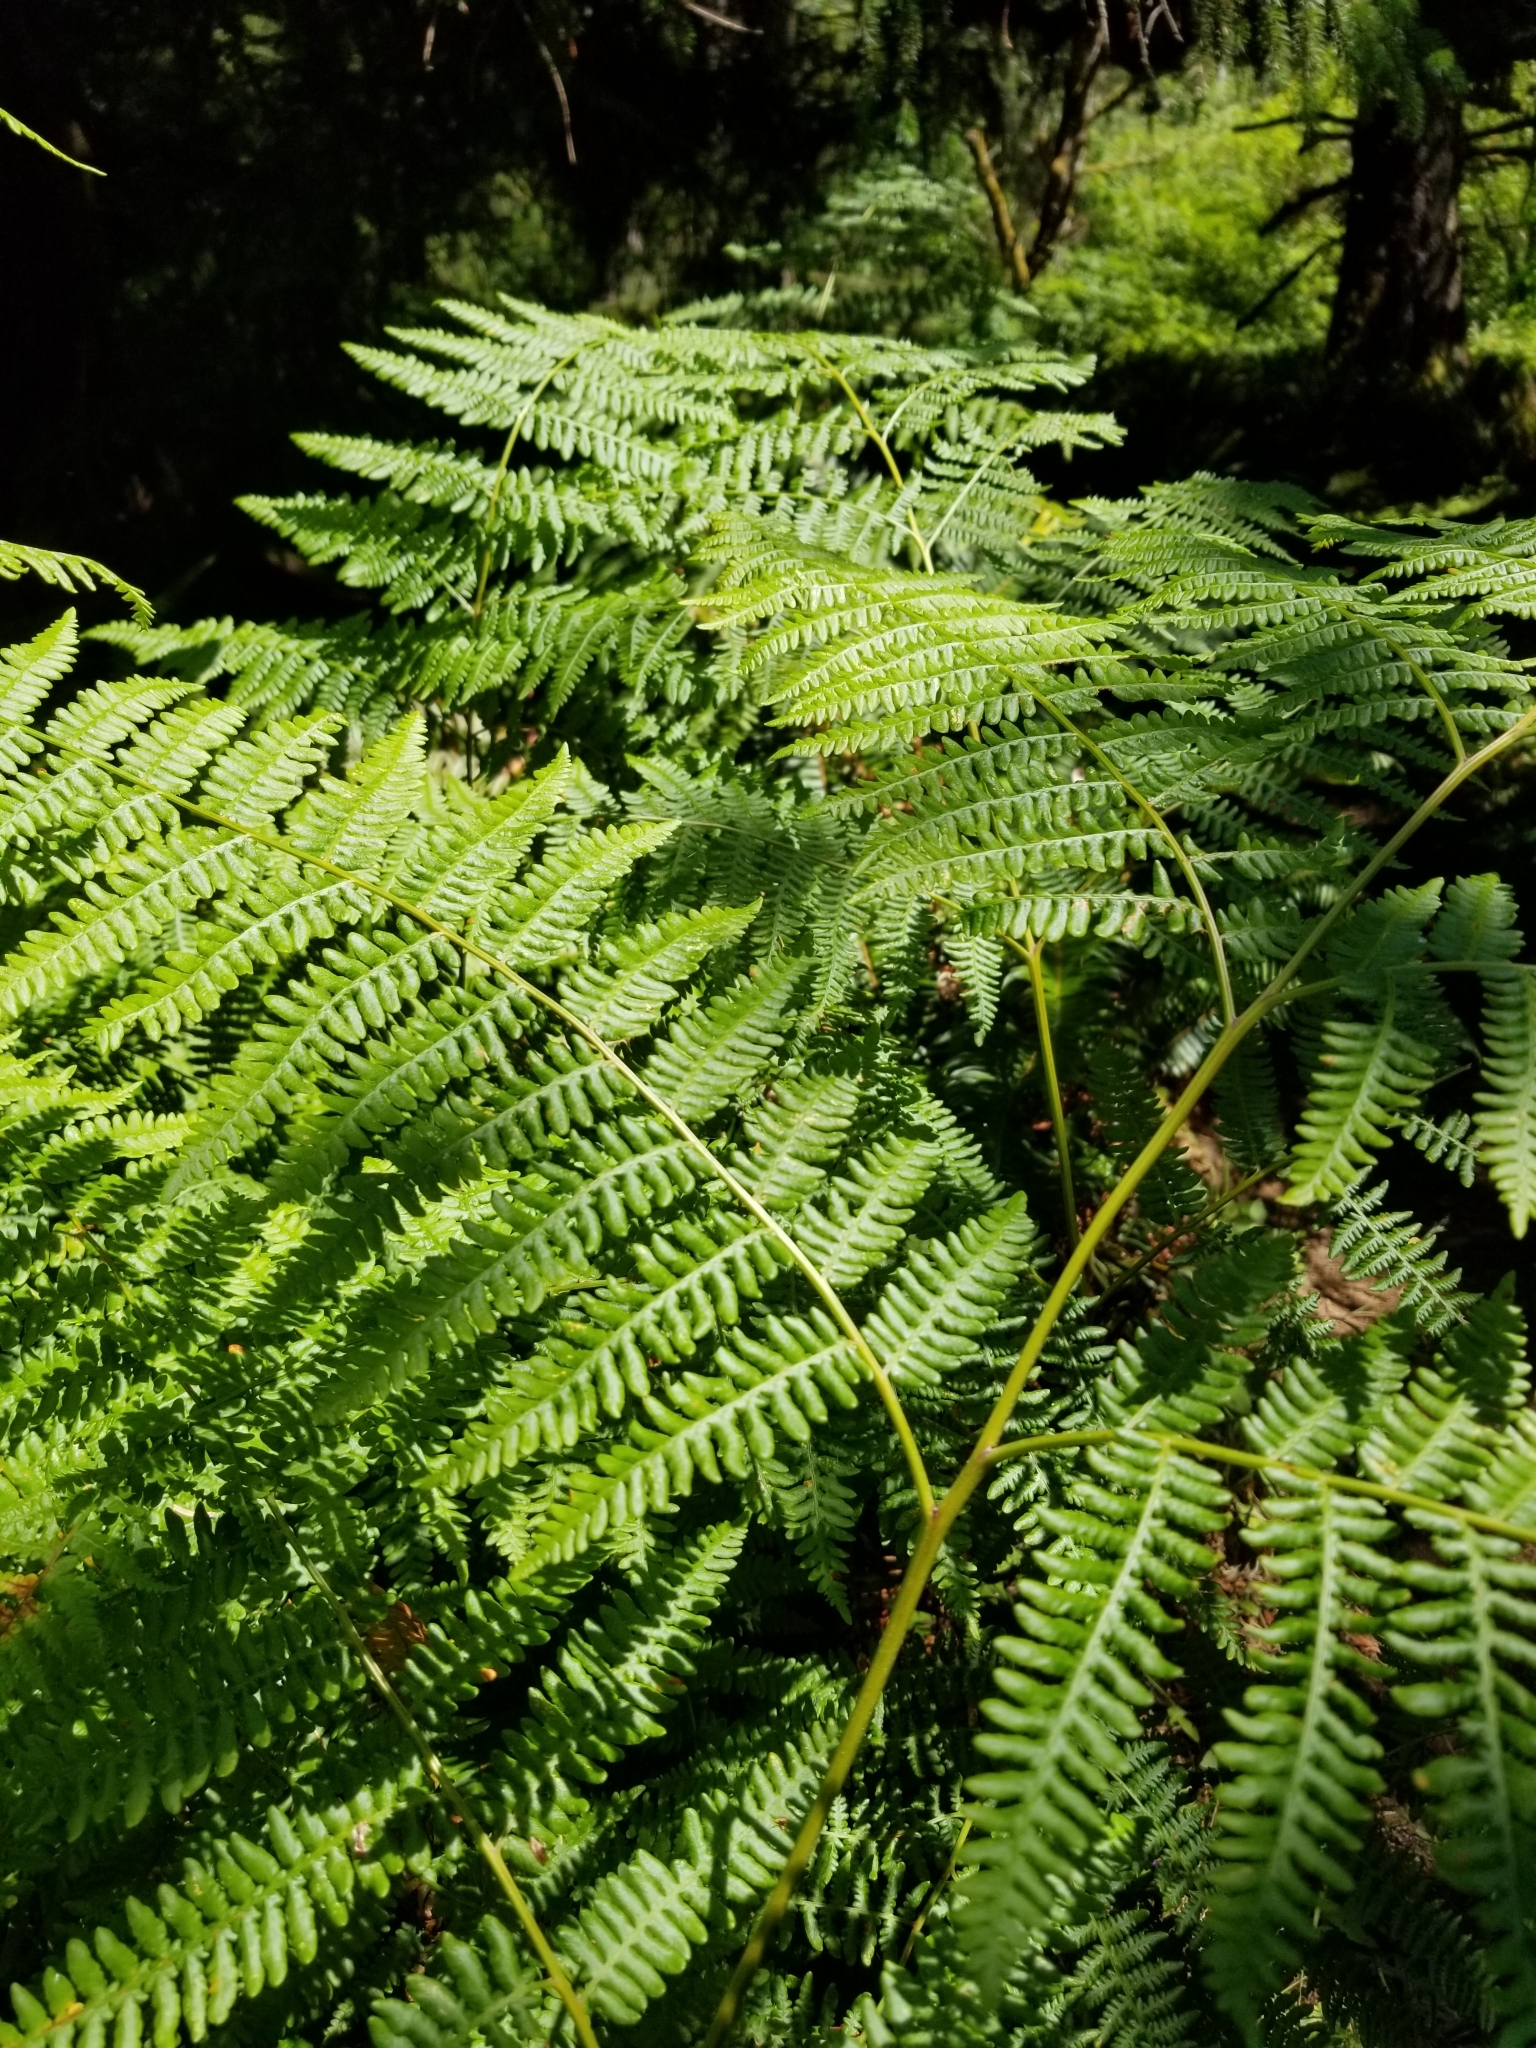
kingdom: Plantae
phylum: Tracheophyta
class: Polypodiopsida
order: Polypodiales
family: Dennstaedtiaceae
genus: Pteridium
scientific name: Pteridium aquilinum
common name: Bracken
